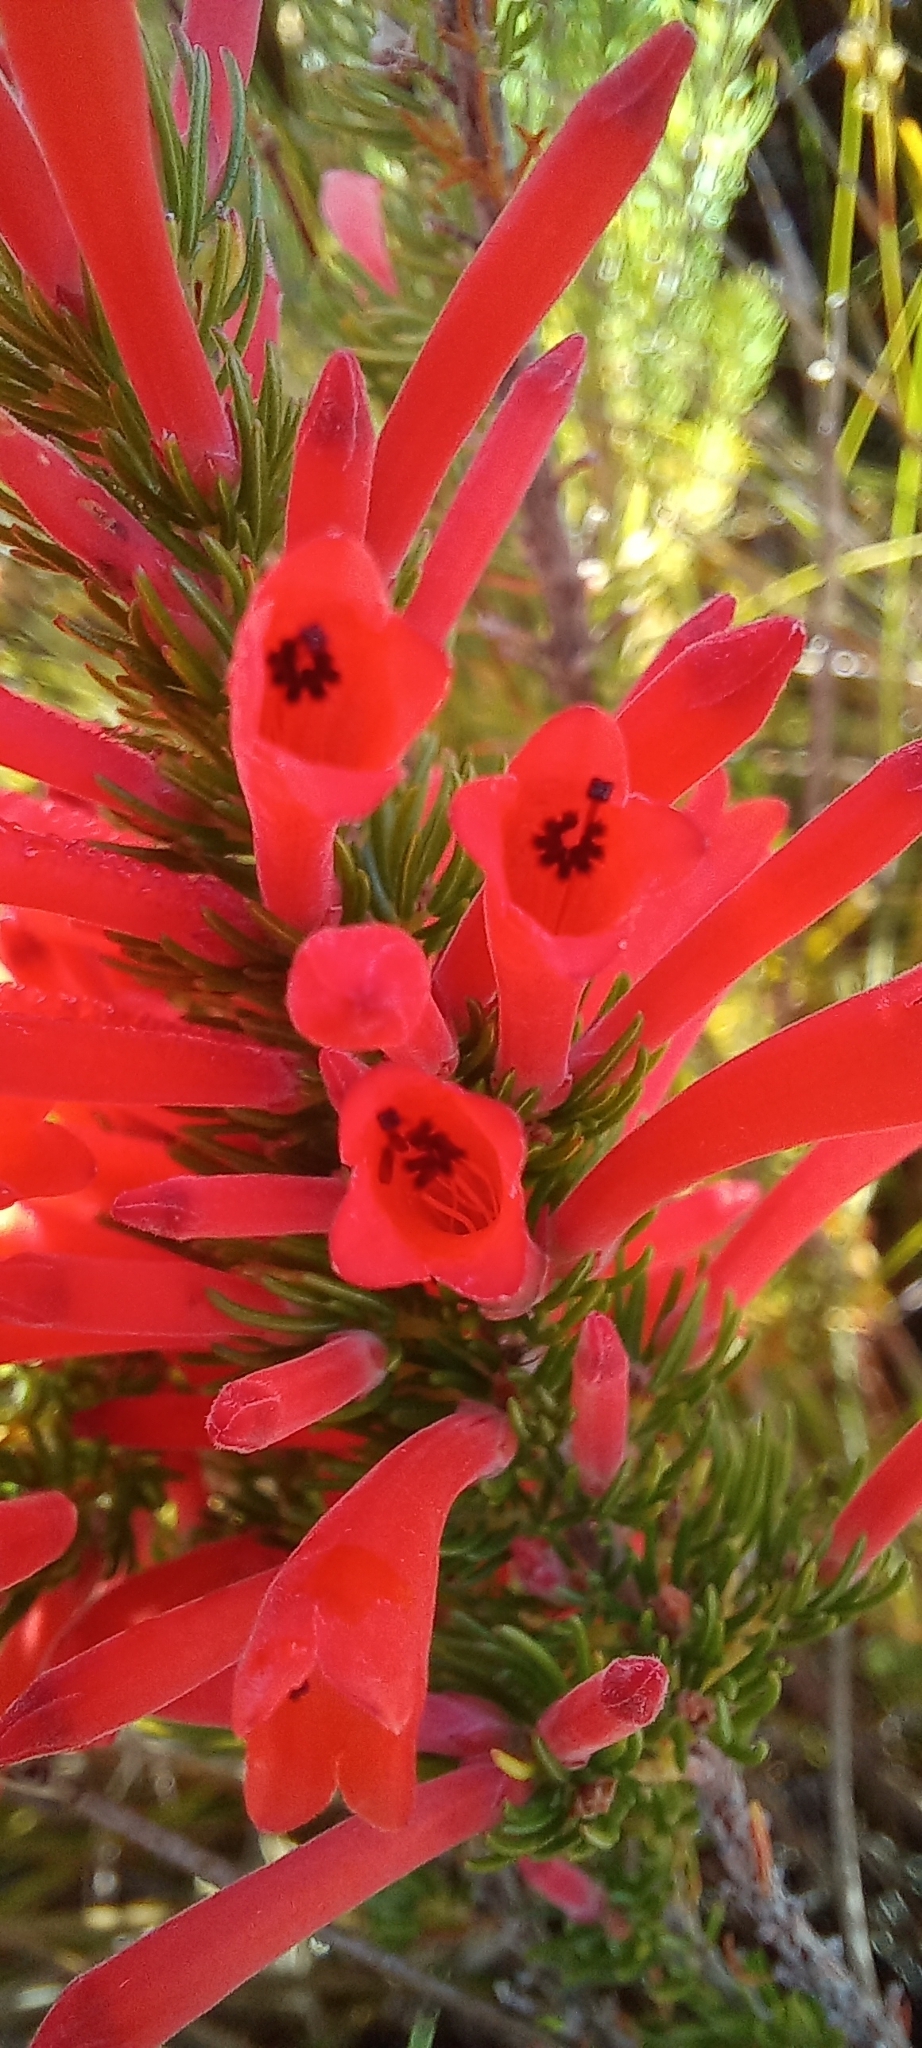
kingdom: Plantae
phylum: Tracheophyta
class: Magnoliopsida
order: Ericales
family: Ericaceae
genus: Erica
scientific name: Erica pillansii
